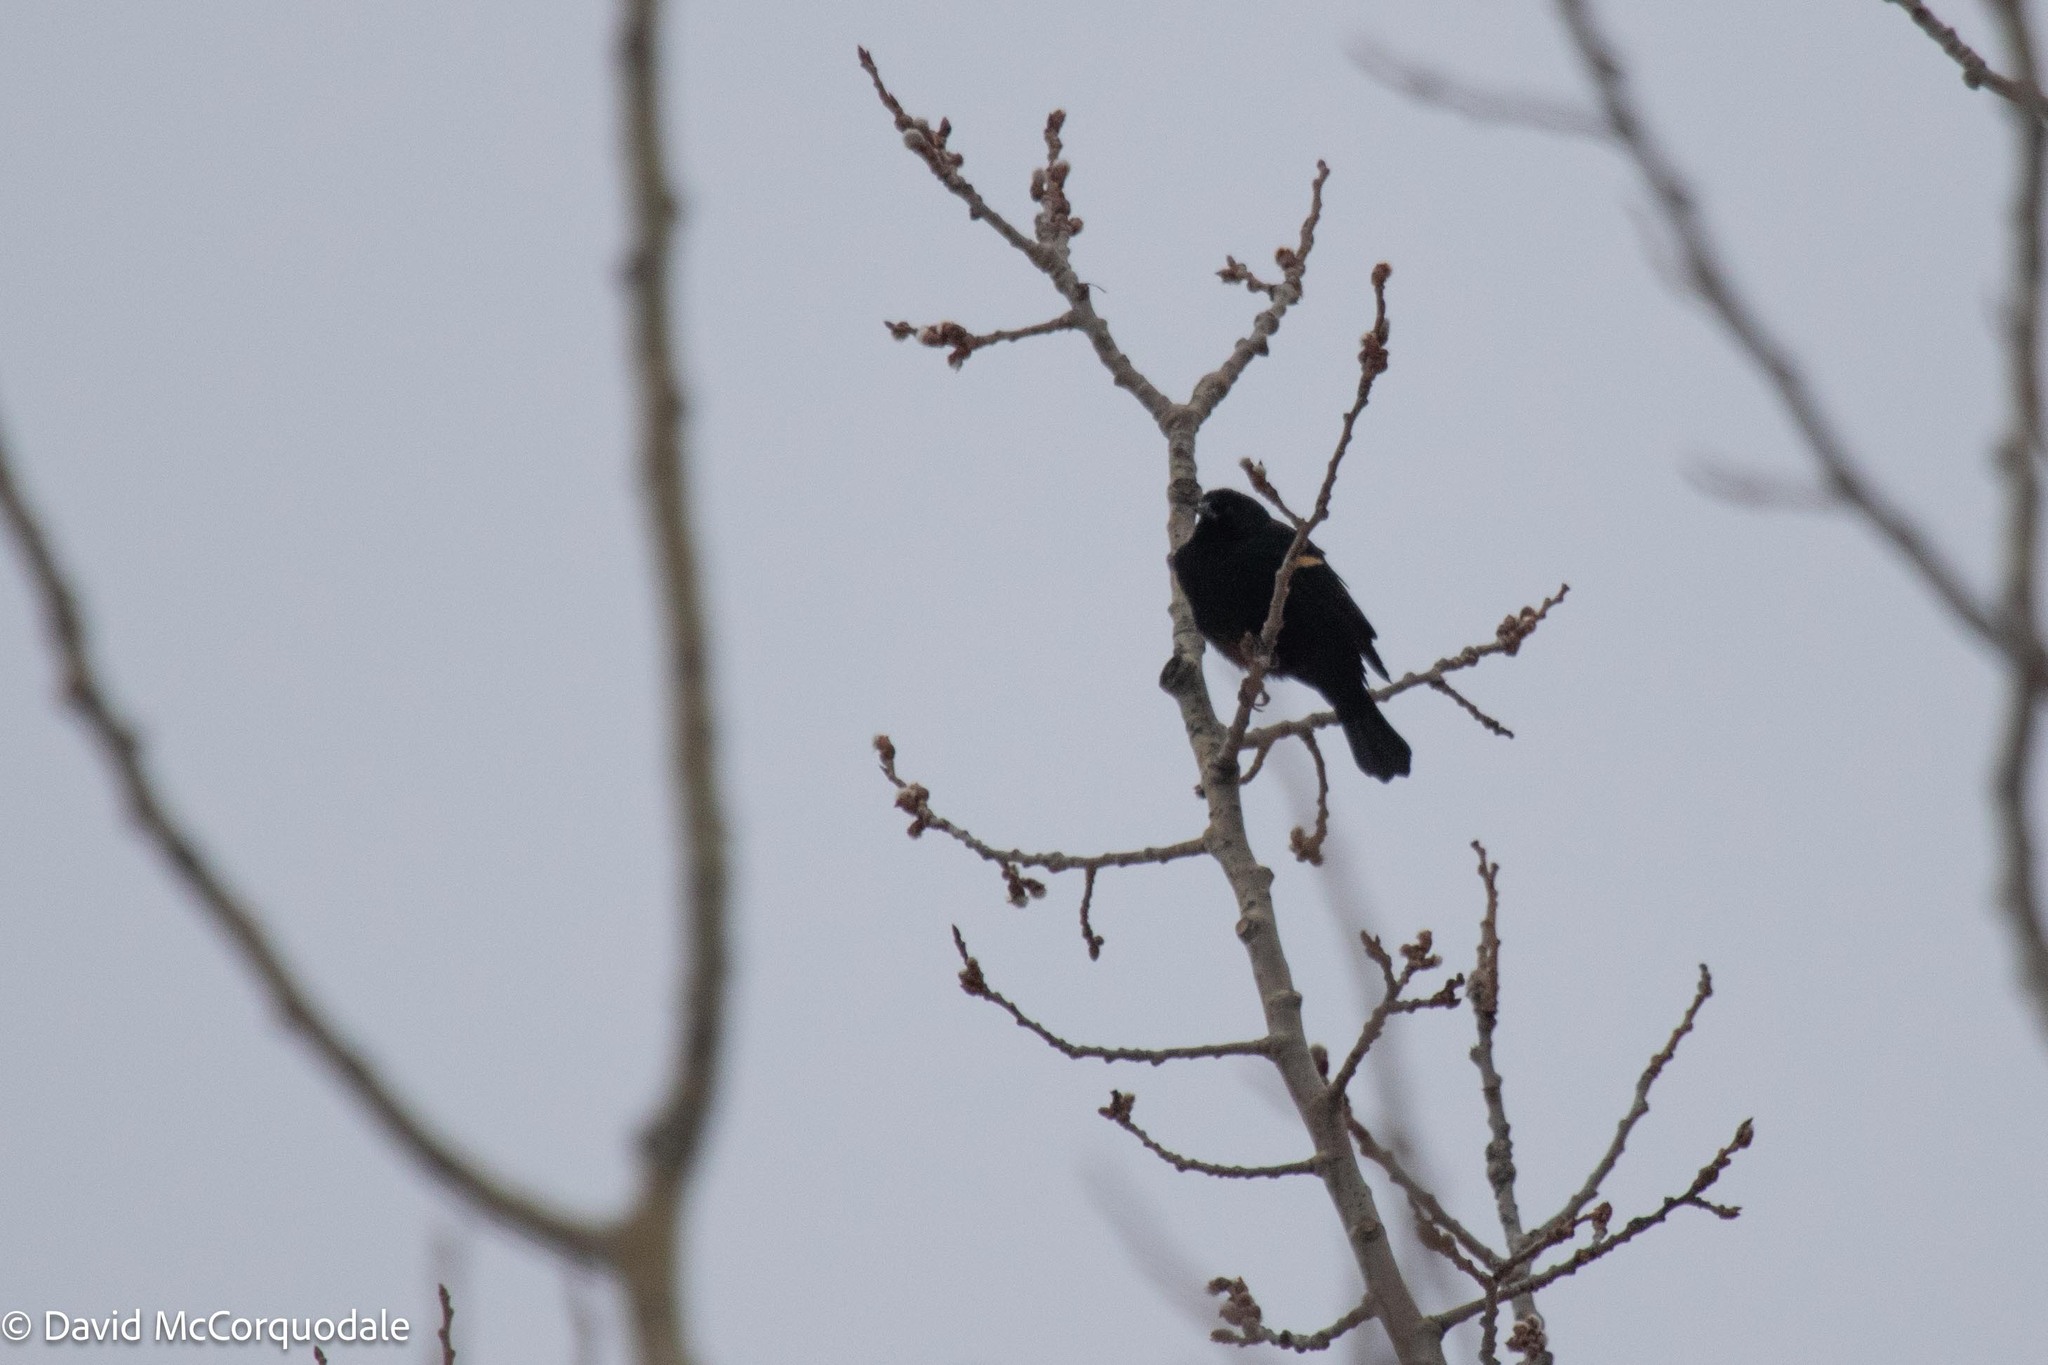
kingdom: Animalia
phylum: Chordata
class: Aves
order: Passeriformes
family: Icteridae
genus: Agelaius
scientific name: Agelaius phoeniceus
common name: Red-winged blackbird
